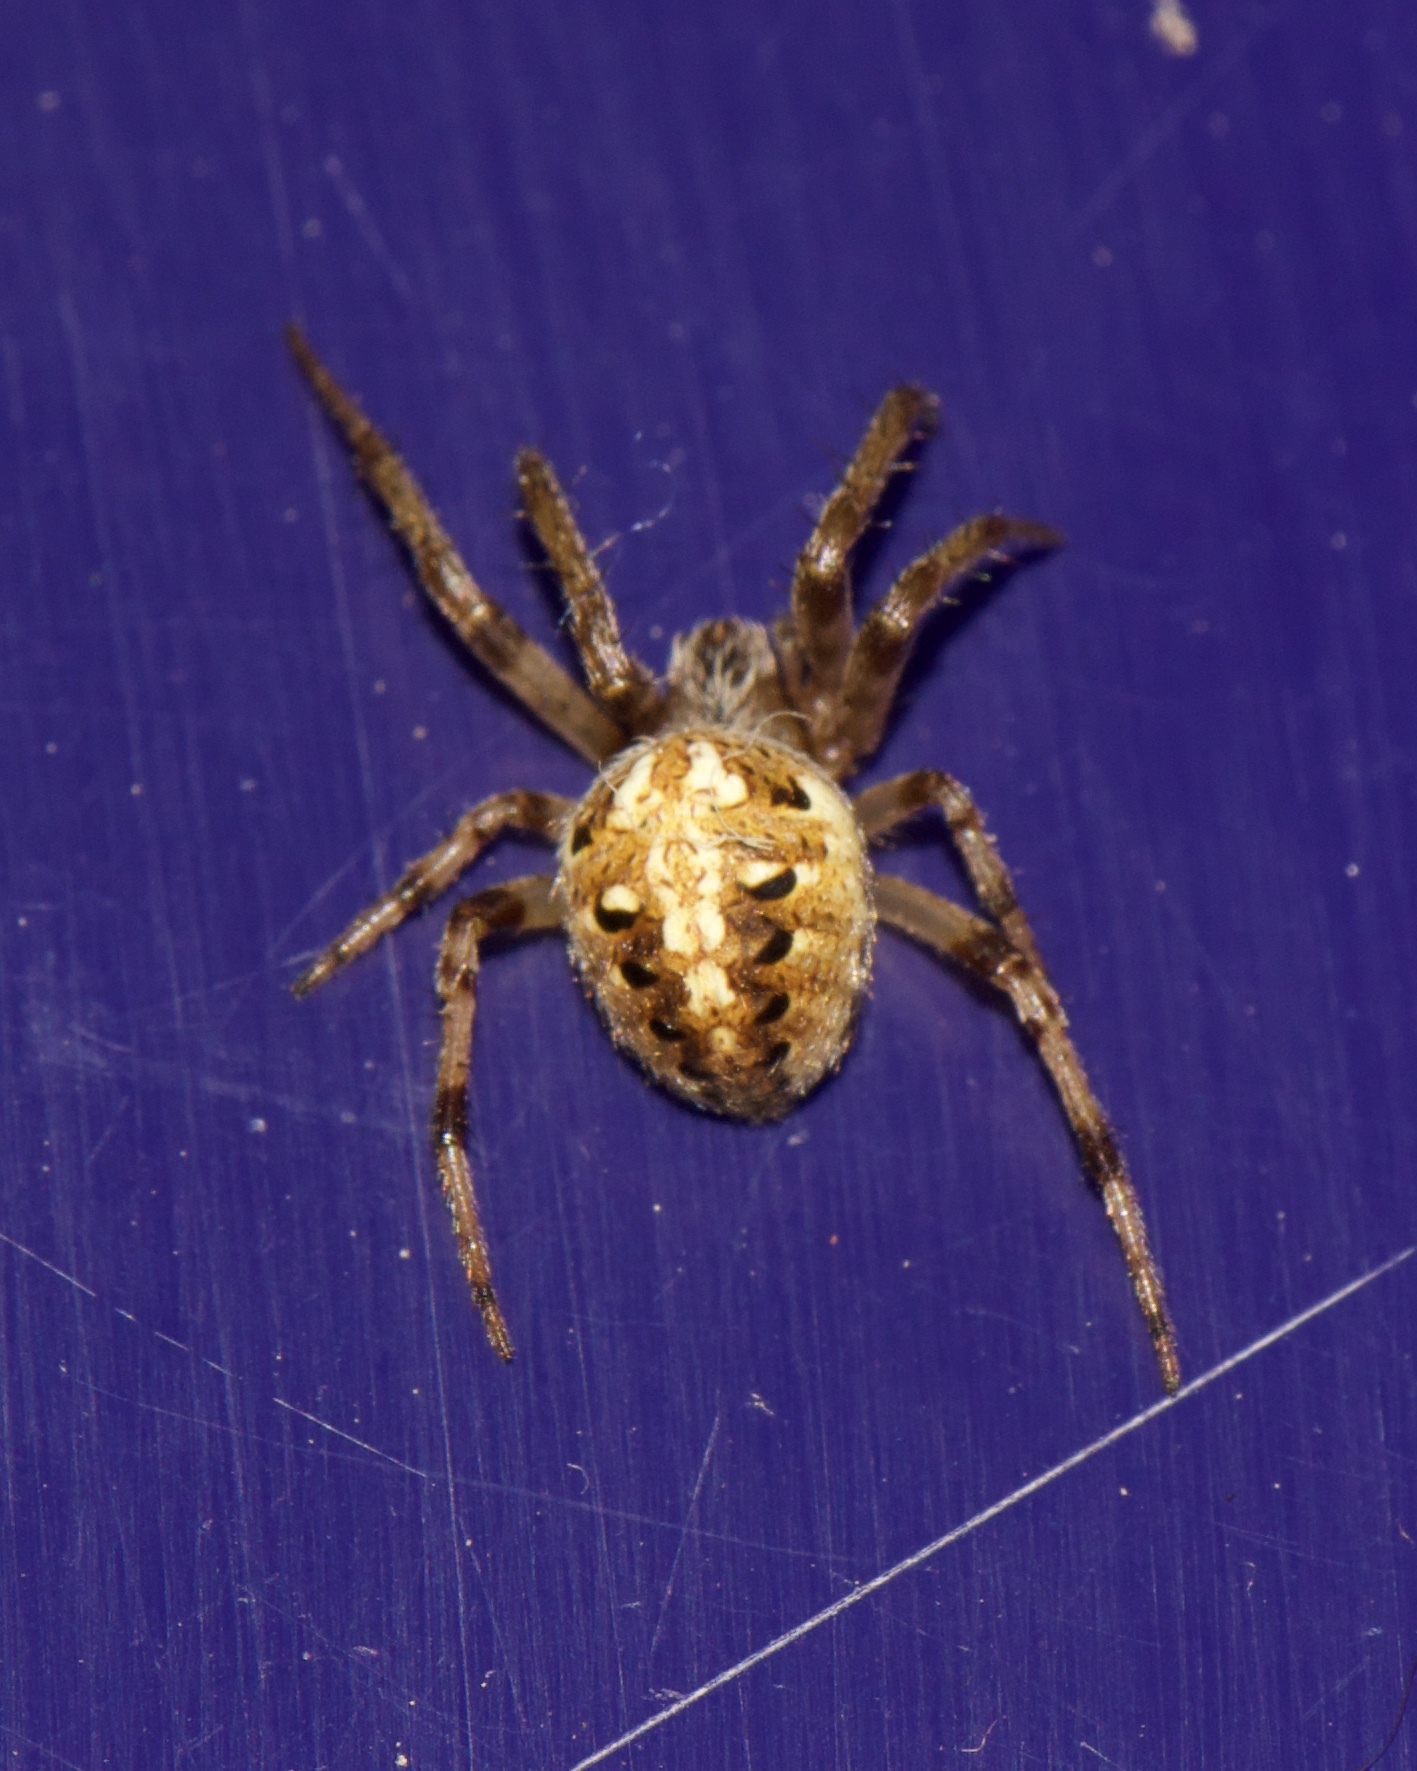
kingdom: Animalia
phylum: Arthropoda
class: Arachnida
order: Araneae
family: Araneidae
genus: Neoscona
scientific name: Neoscona arabesca
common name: Orb weavers
